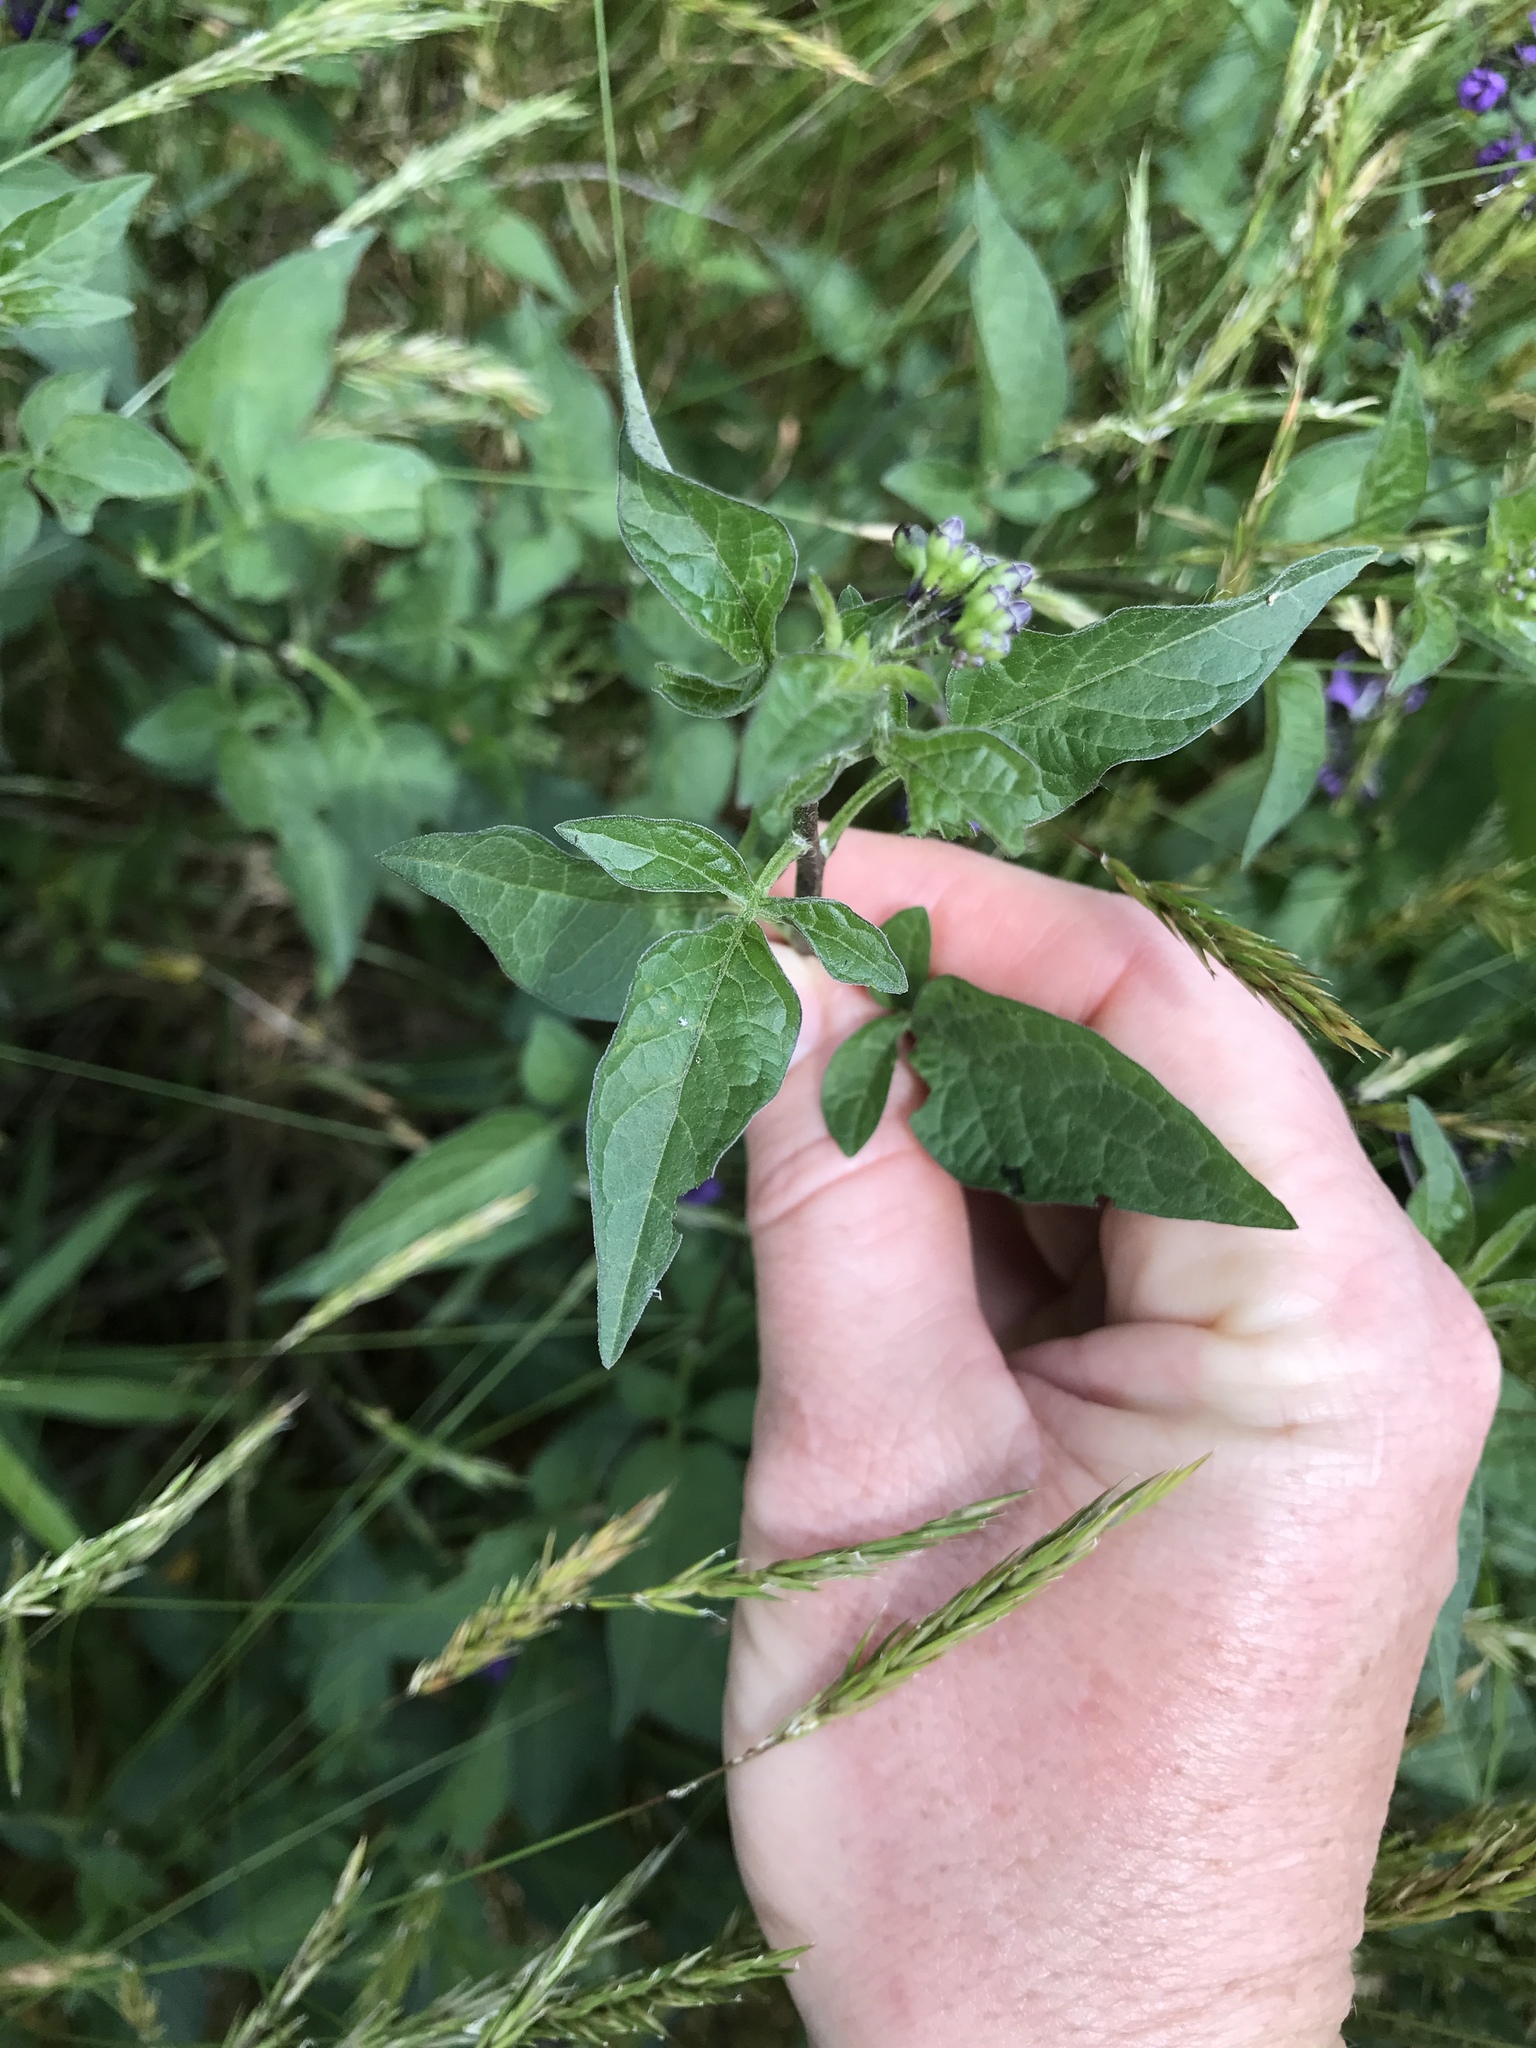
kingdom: Plantae
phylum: Tracheophyta
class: Magnoliopsida
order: Solanales
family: Solanaceae
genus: Solanum
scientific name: Solanum dulcamara
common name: Climbing nightshade
